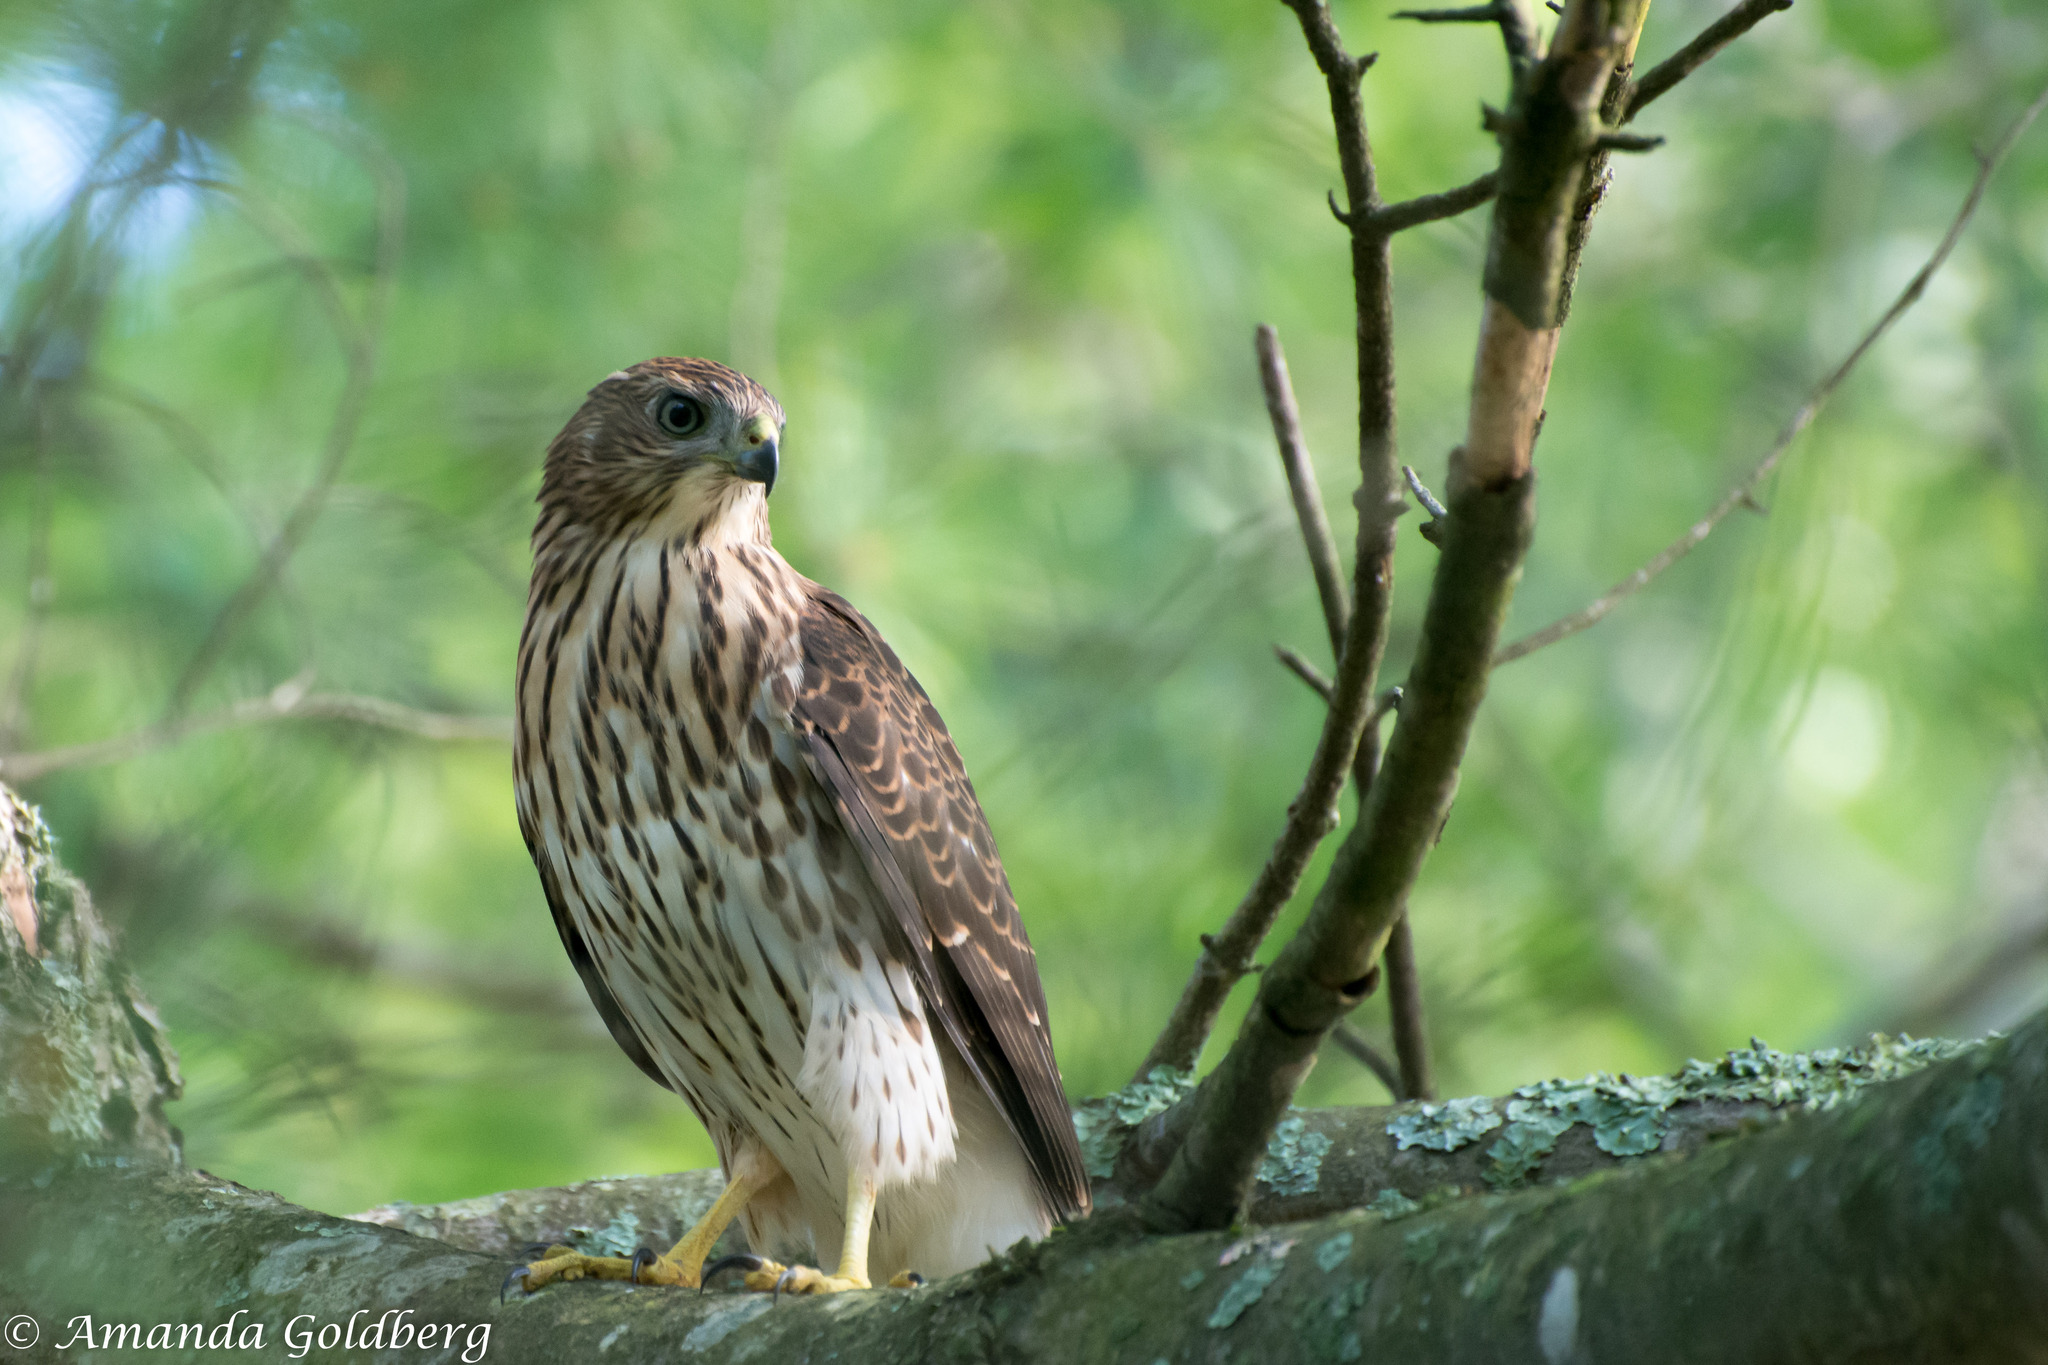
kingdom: Animalia
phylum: Chordata
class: Aves
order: Accipitriformes
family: Accipitridae
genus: Accipiter
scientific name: Accipiter cooperii
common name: Cooper's hawk
